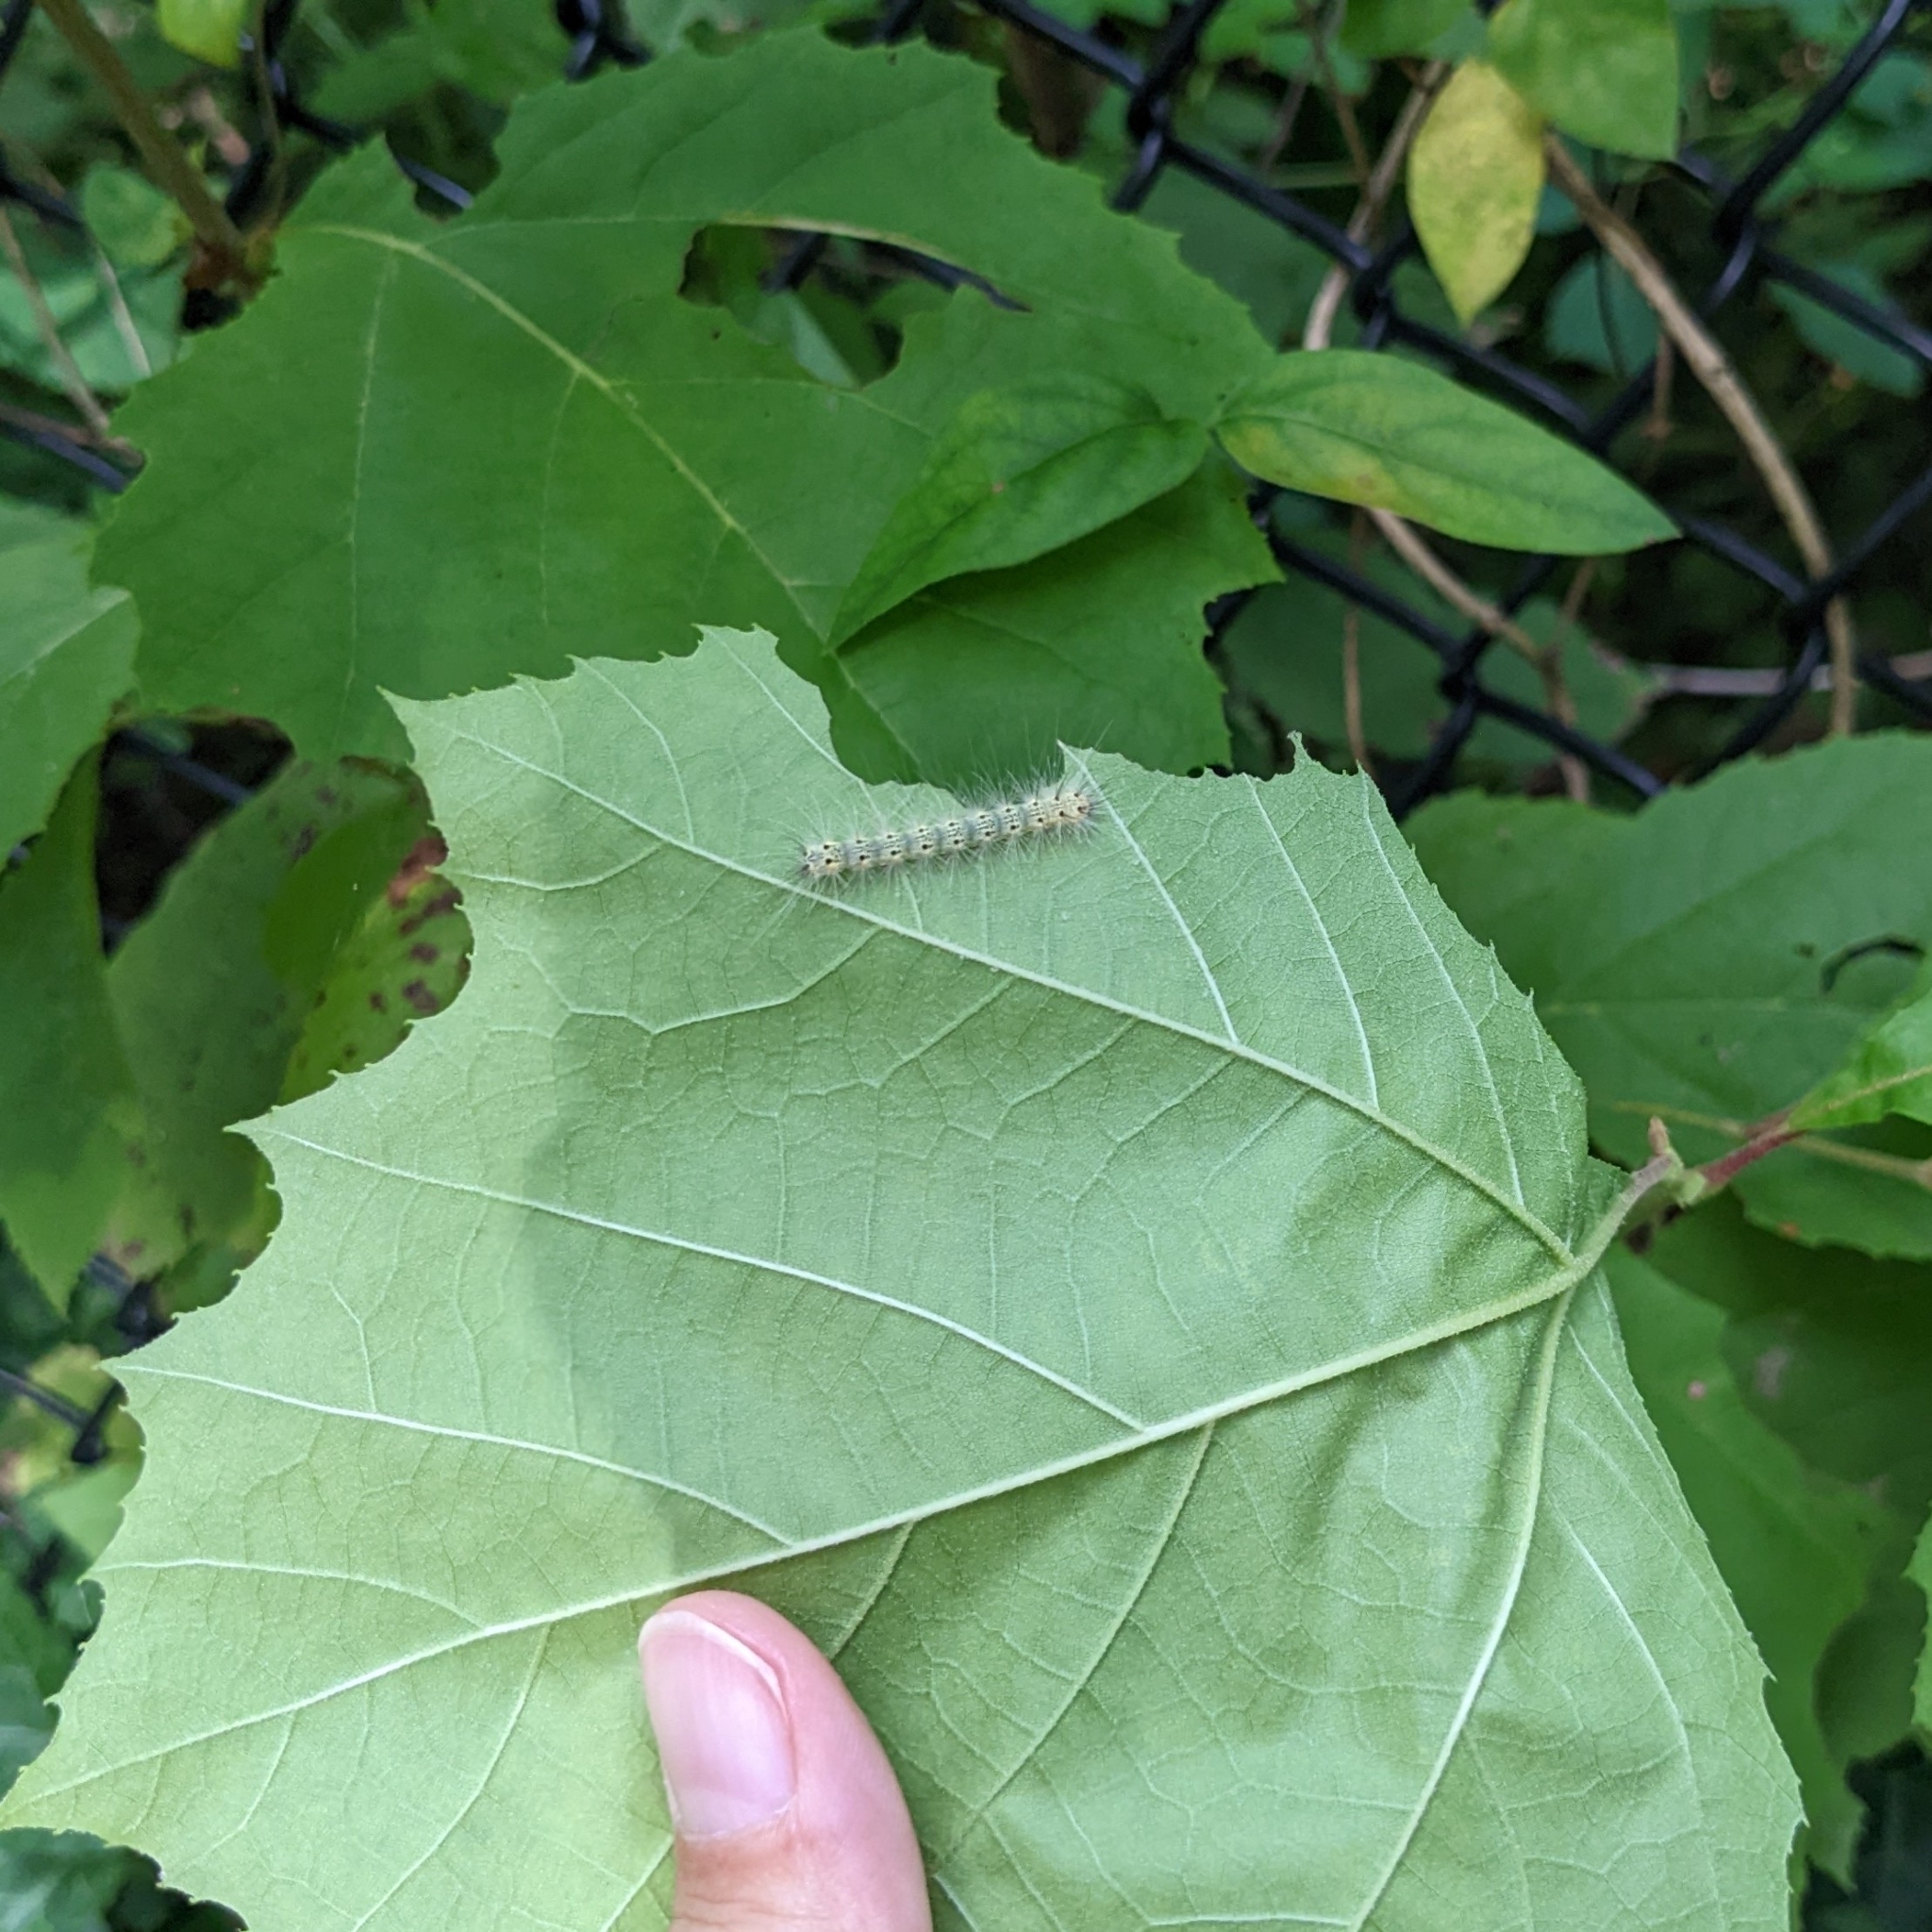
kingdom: Animalia
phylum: Arthropoda
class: Insecta
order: Lepidoptera
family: Erebidae
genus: Hyphantria
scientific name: Hyphantria cunea
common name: American white moth
